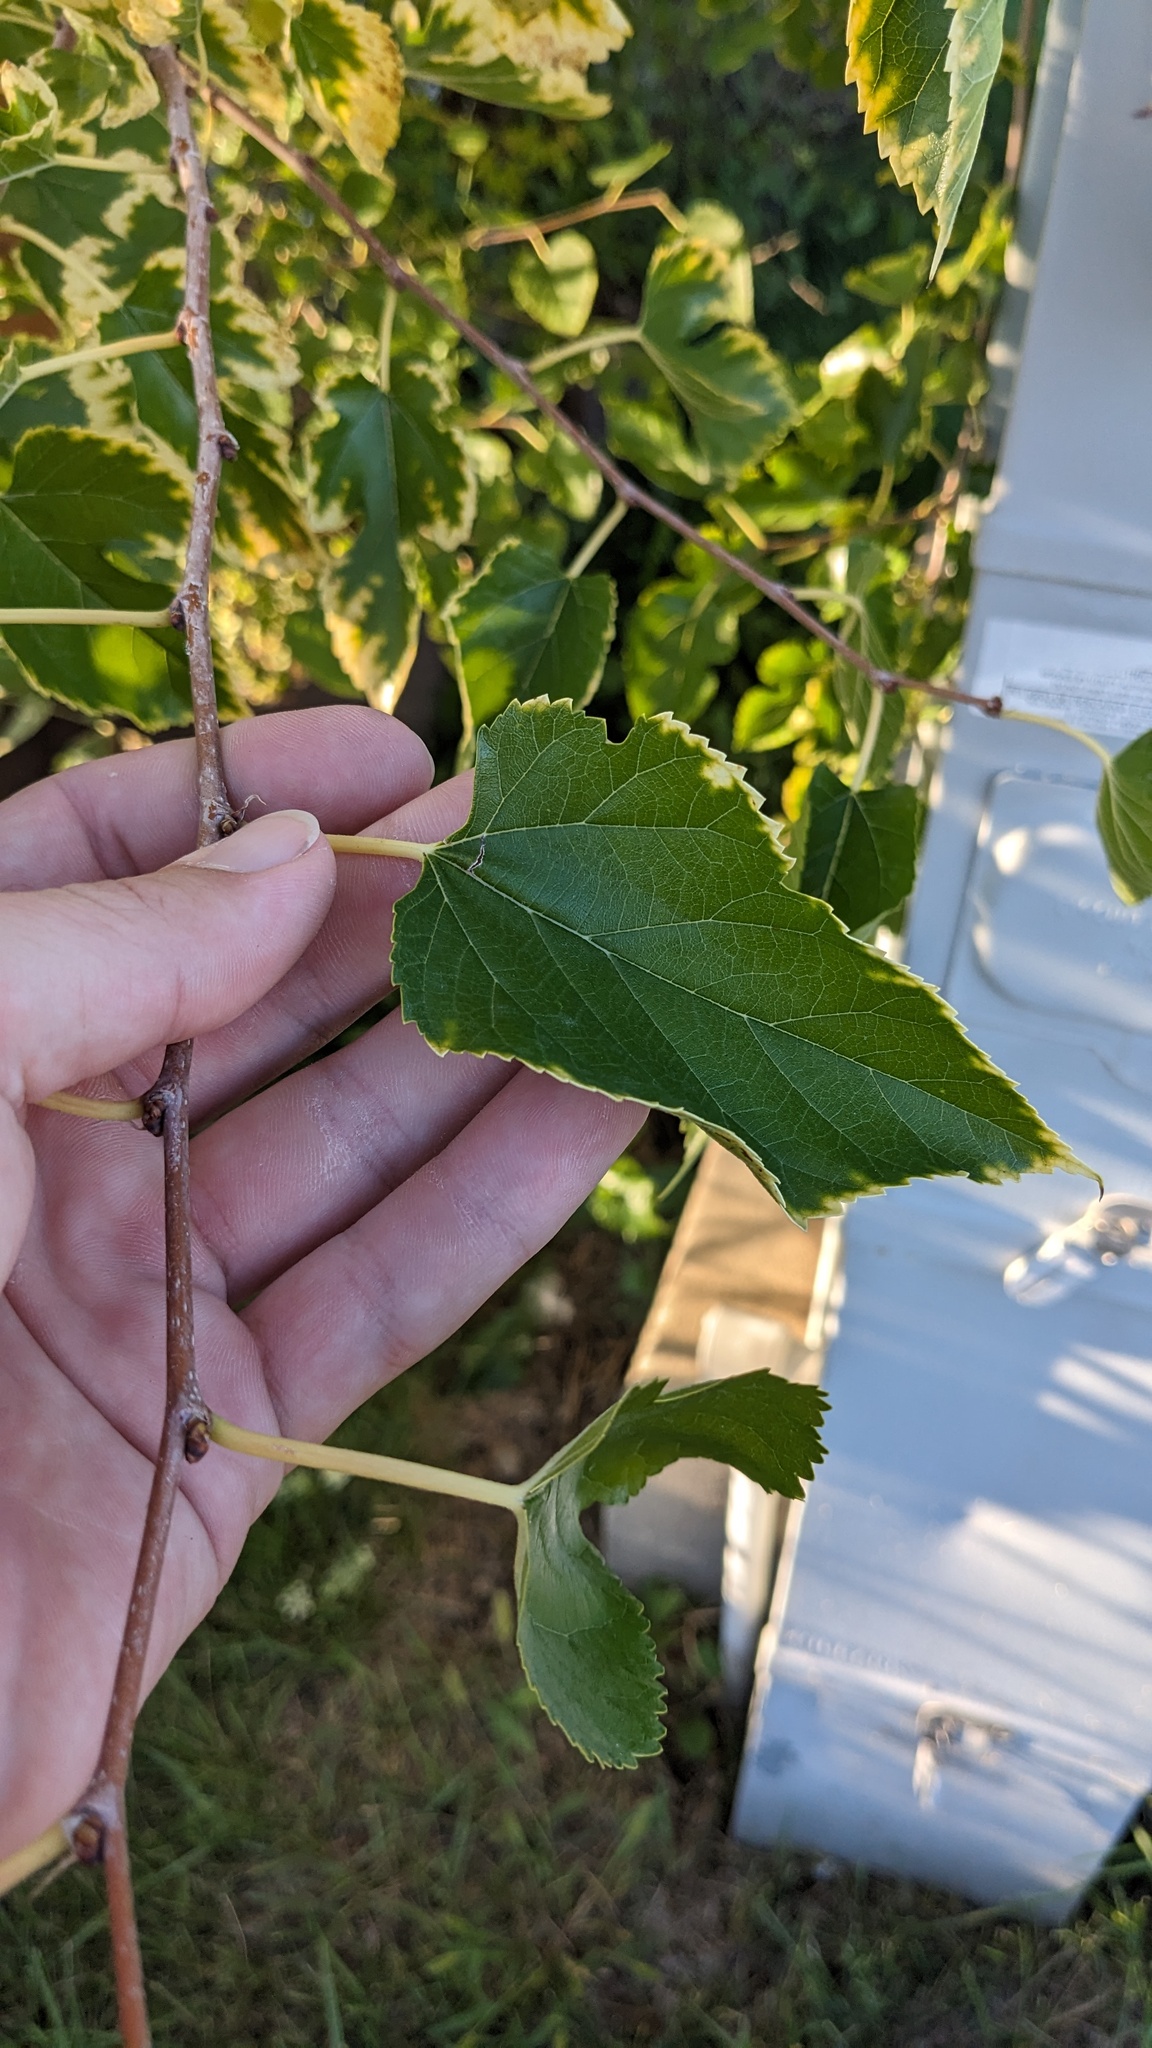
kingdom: Plantae
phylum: Tracheophyta
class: Magnoliopsida
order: Rosales
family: Moraceae
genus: Morus
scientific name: Morus alba
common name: White mulberry
